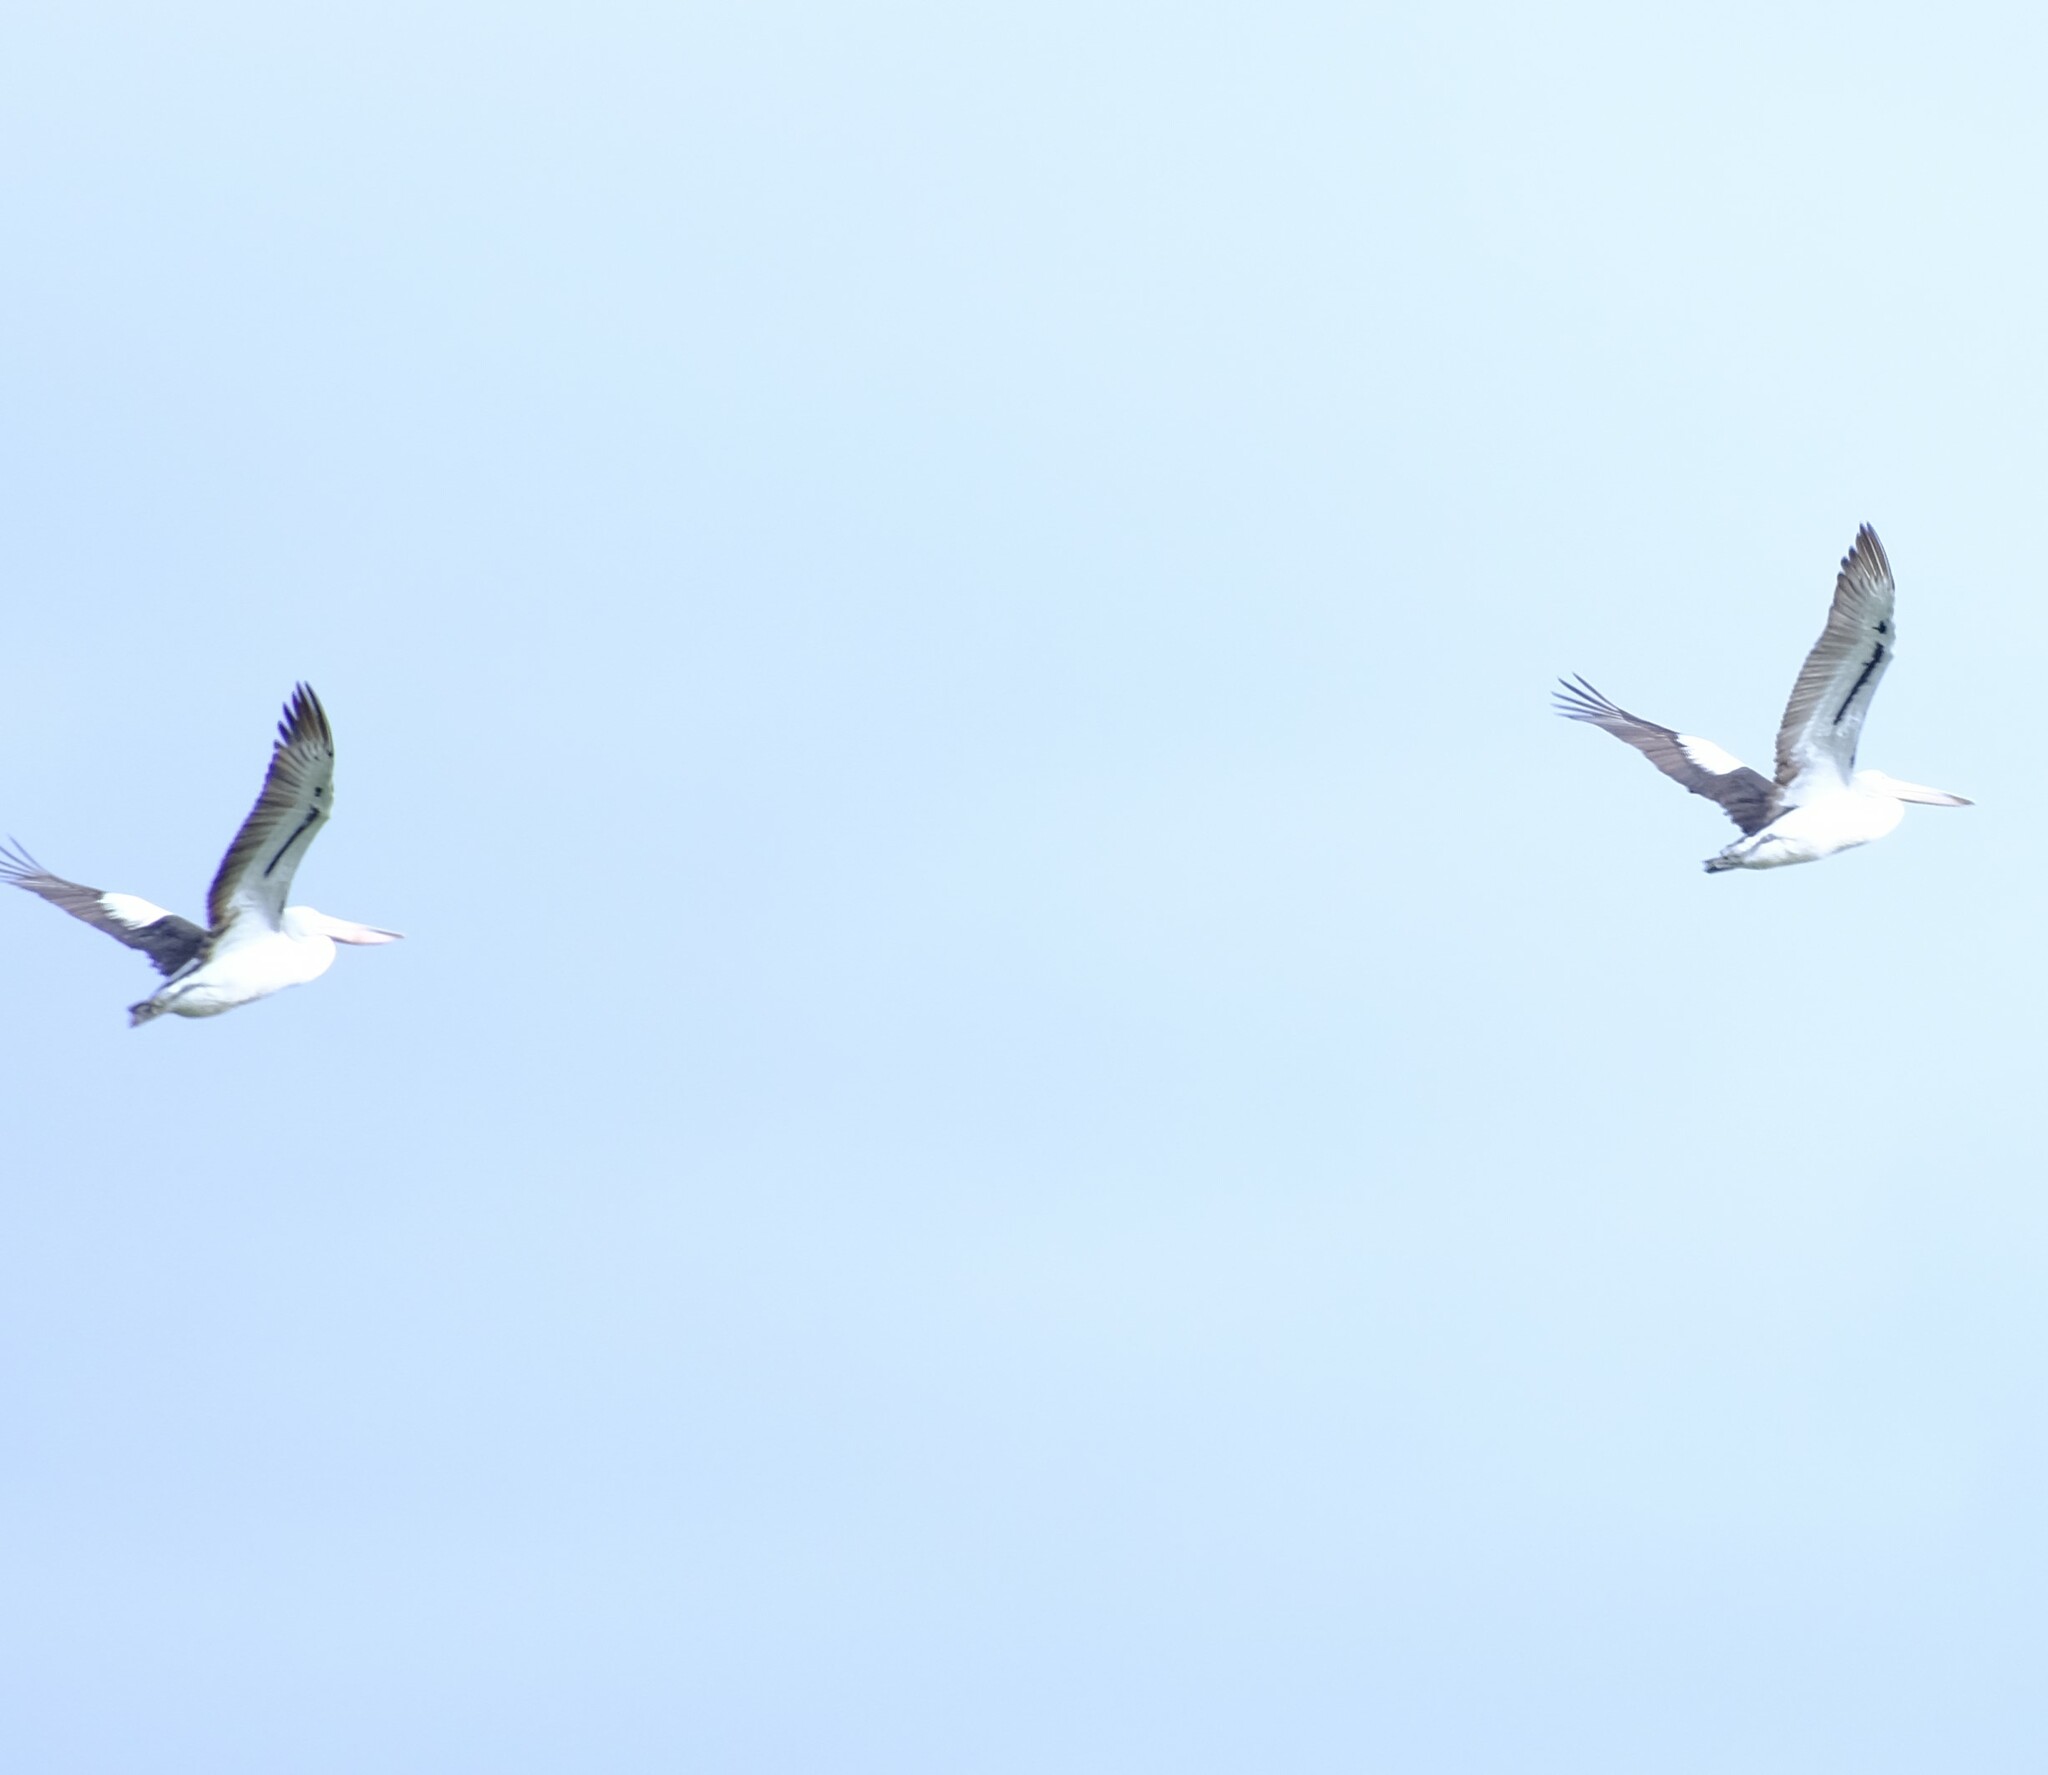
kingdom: Animalia
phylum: Chordata
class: Aves
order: Pelecaniformes
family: Pelecanidae
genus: Pelecanus
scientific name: Pelecanus conspicillatus
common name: Australian pelican
